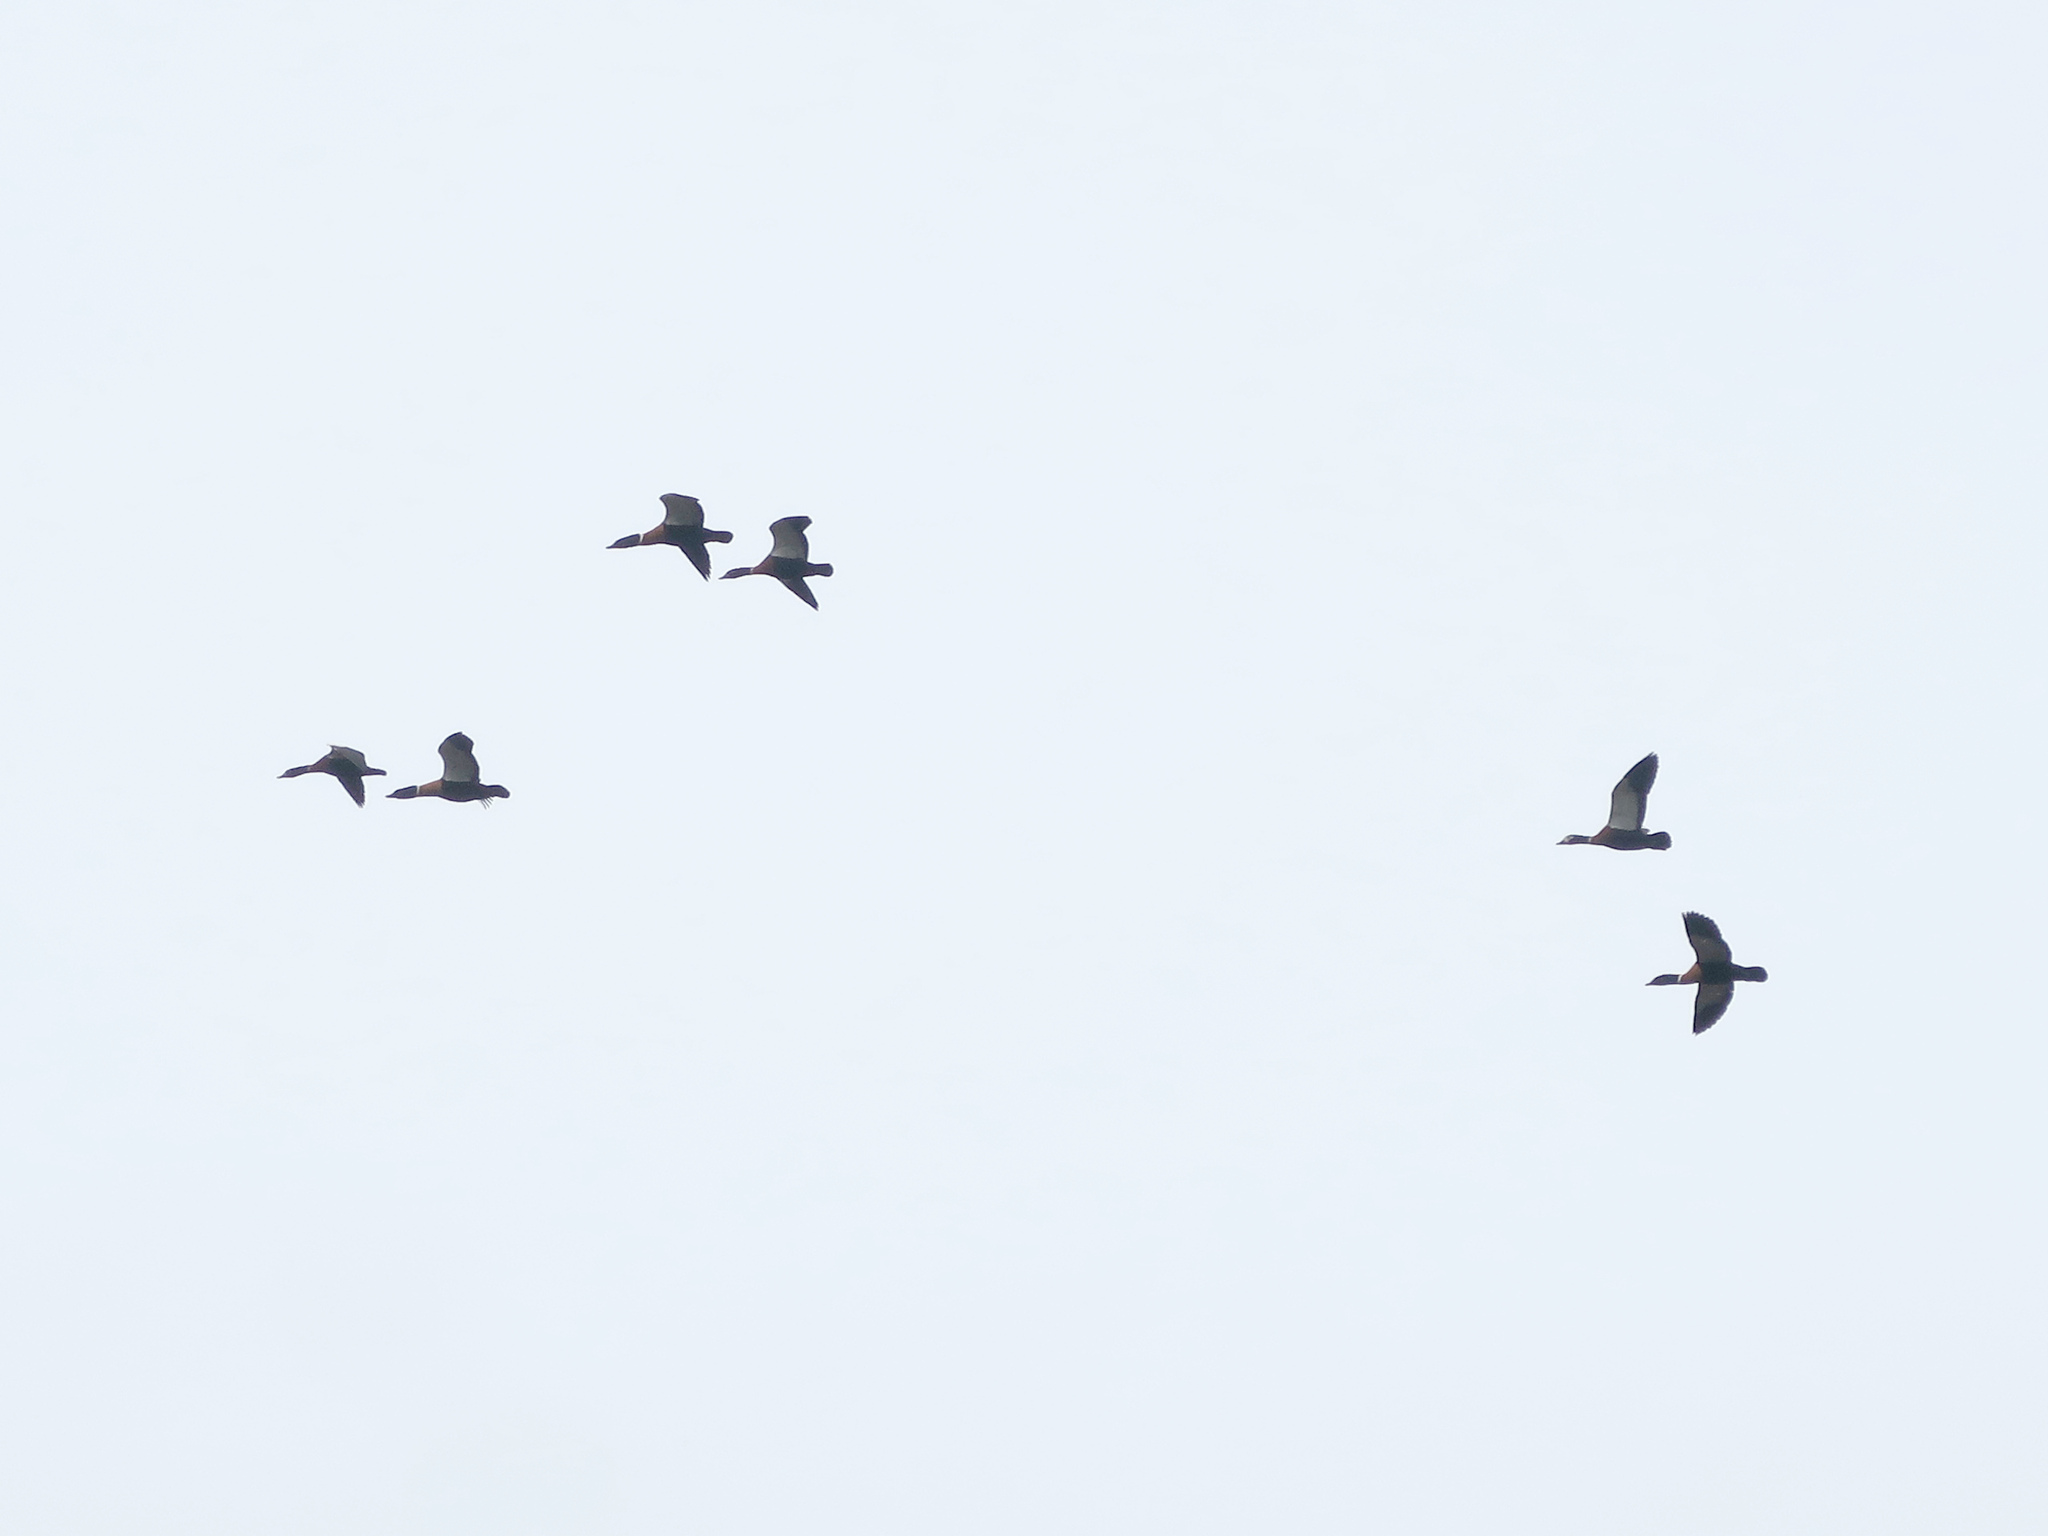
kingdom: Animalia
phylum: Chordata
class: Aves
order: Anseriformes
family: Anatidae
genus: Tadorna
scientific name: Tadorna tadornoides
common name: Australian shelduck
